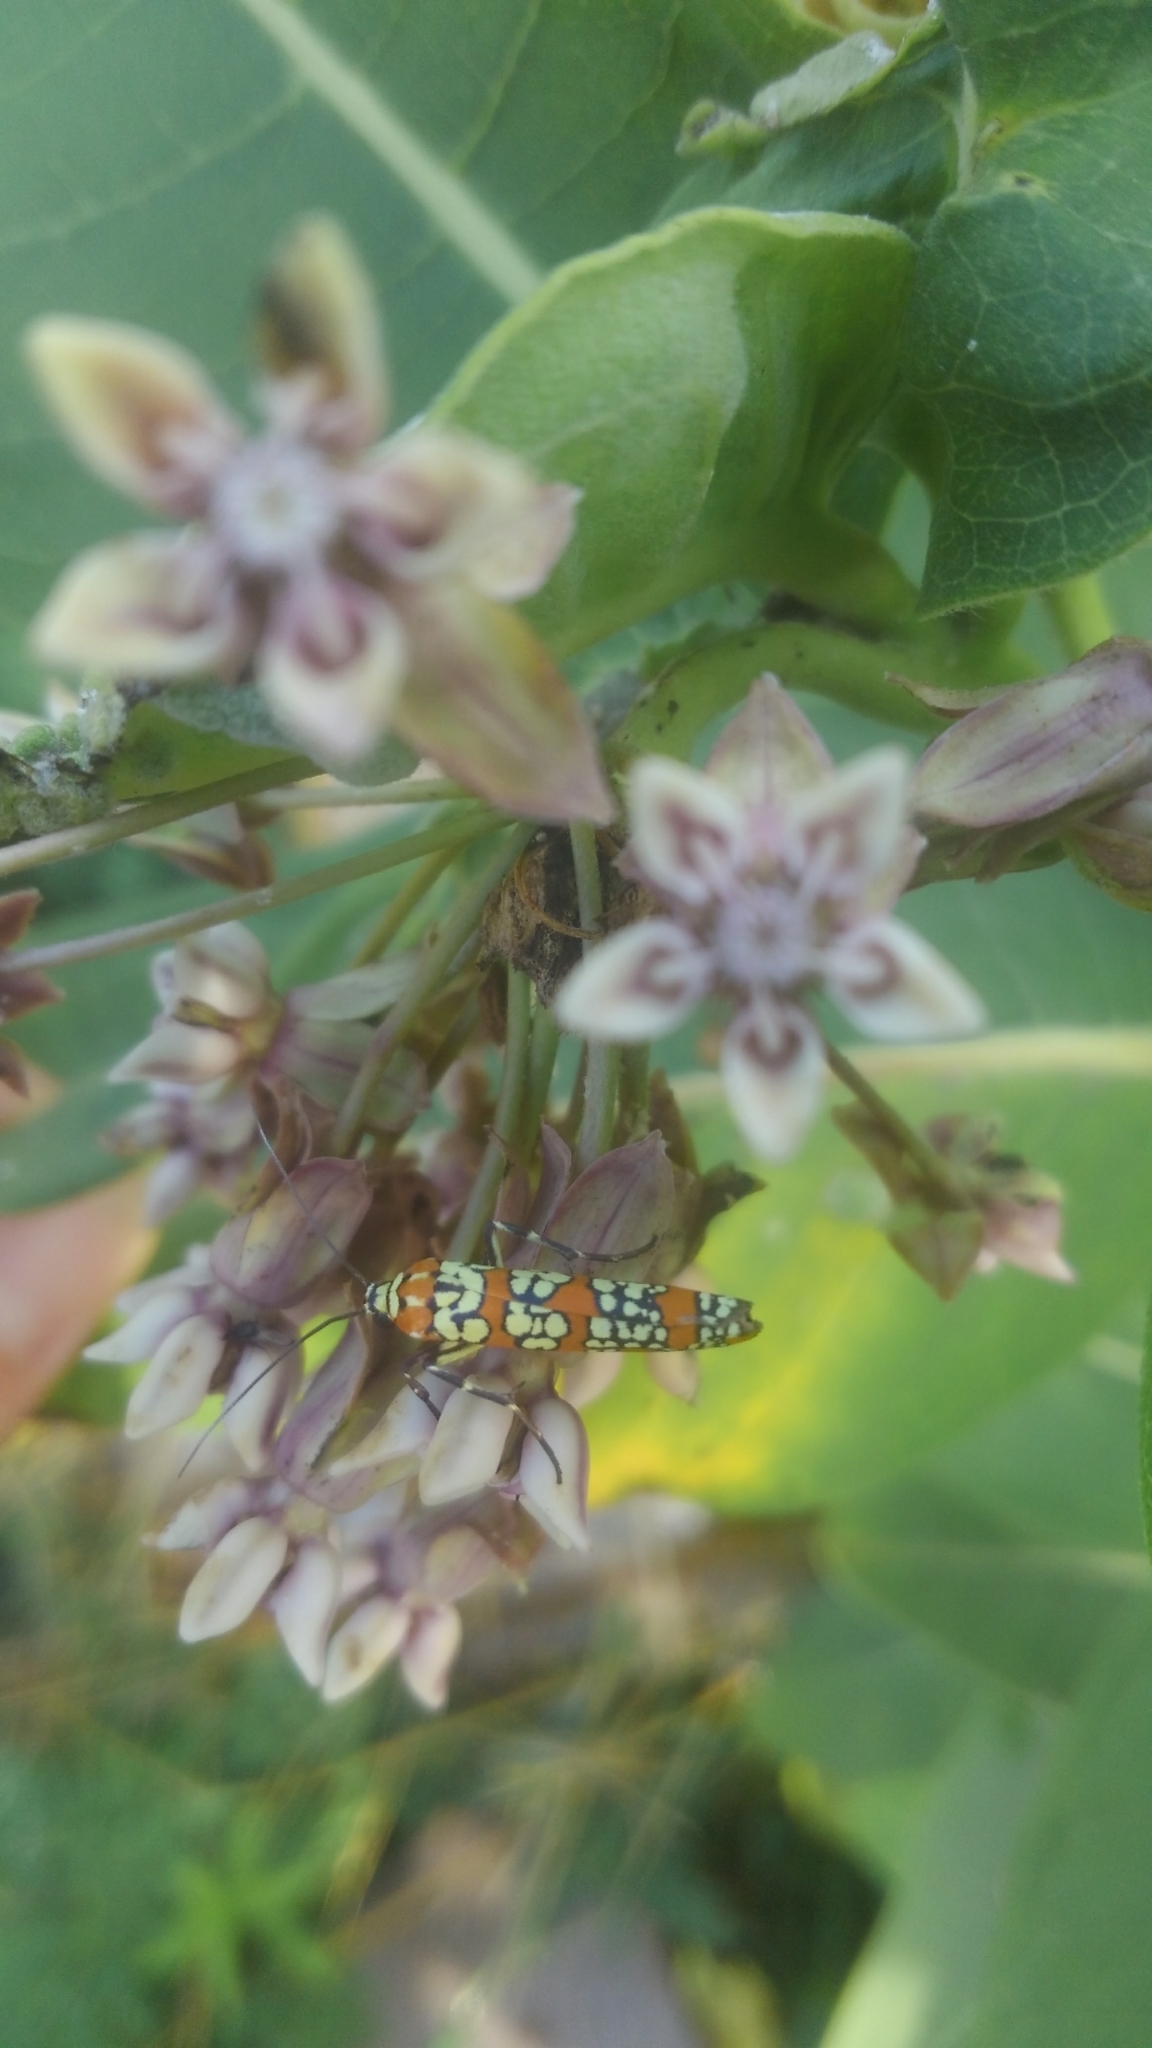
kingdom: Animalia
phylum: Arthropoda
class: Insecta
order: Lepidoptera
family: Attevidae
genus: Atteva
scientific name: Atteva punctella
